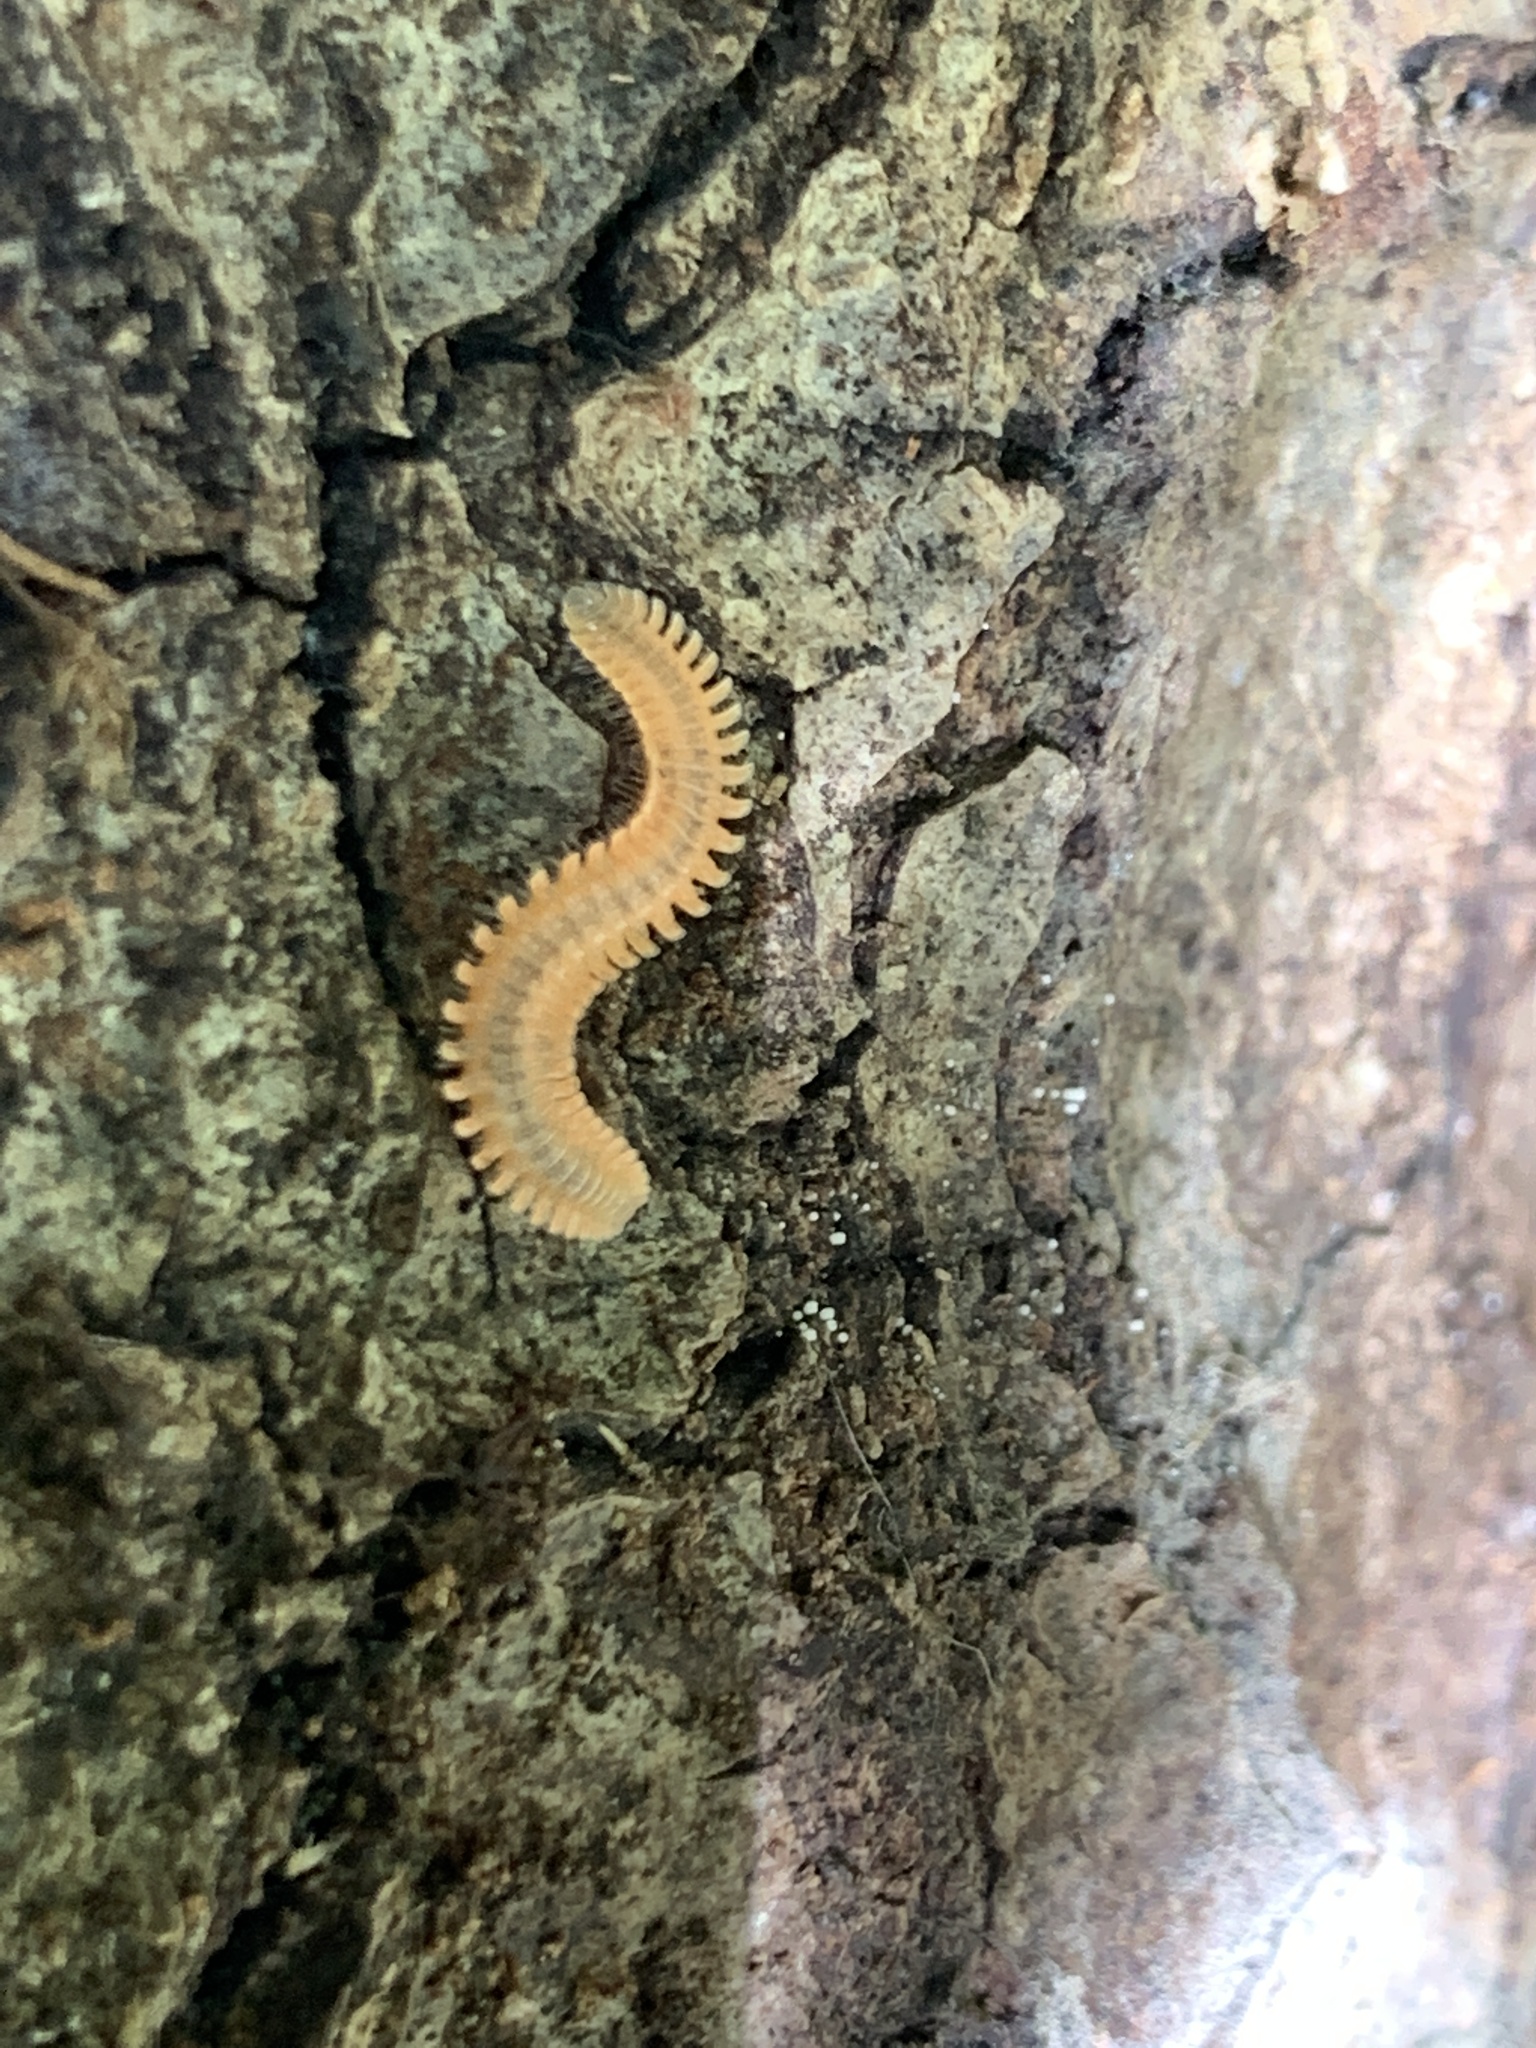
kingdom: Animalia
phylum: Arthropoda
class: Diplopoda
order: Platydesmida
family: Andrognathidae
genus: Brachycybe
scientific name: Brachycybe producta
